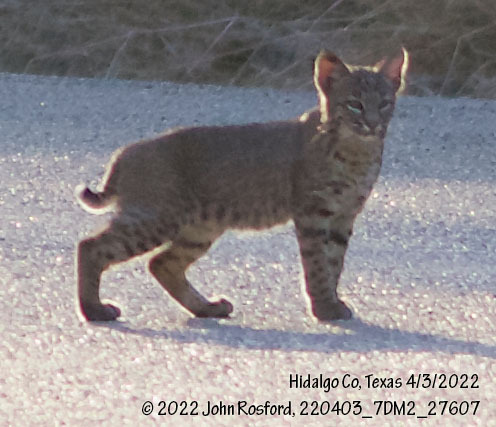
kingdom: Animalia
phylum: Chordata
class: Mammalia
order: Carnivora
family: Felidae
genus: Lynx
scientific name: Lynx rufus
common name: Bobcat
